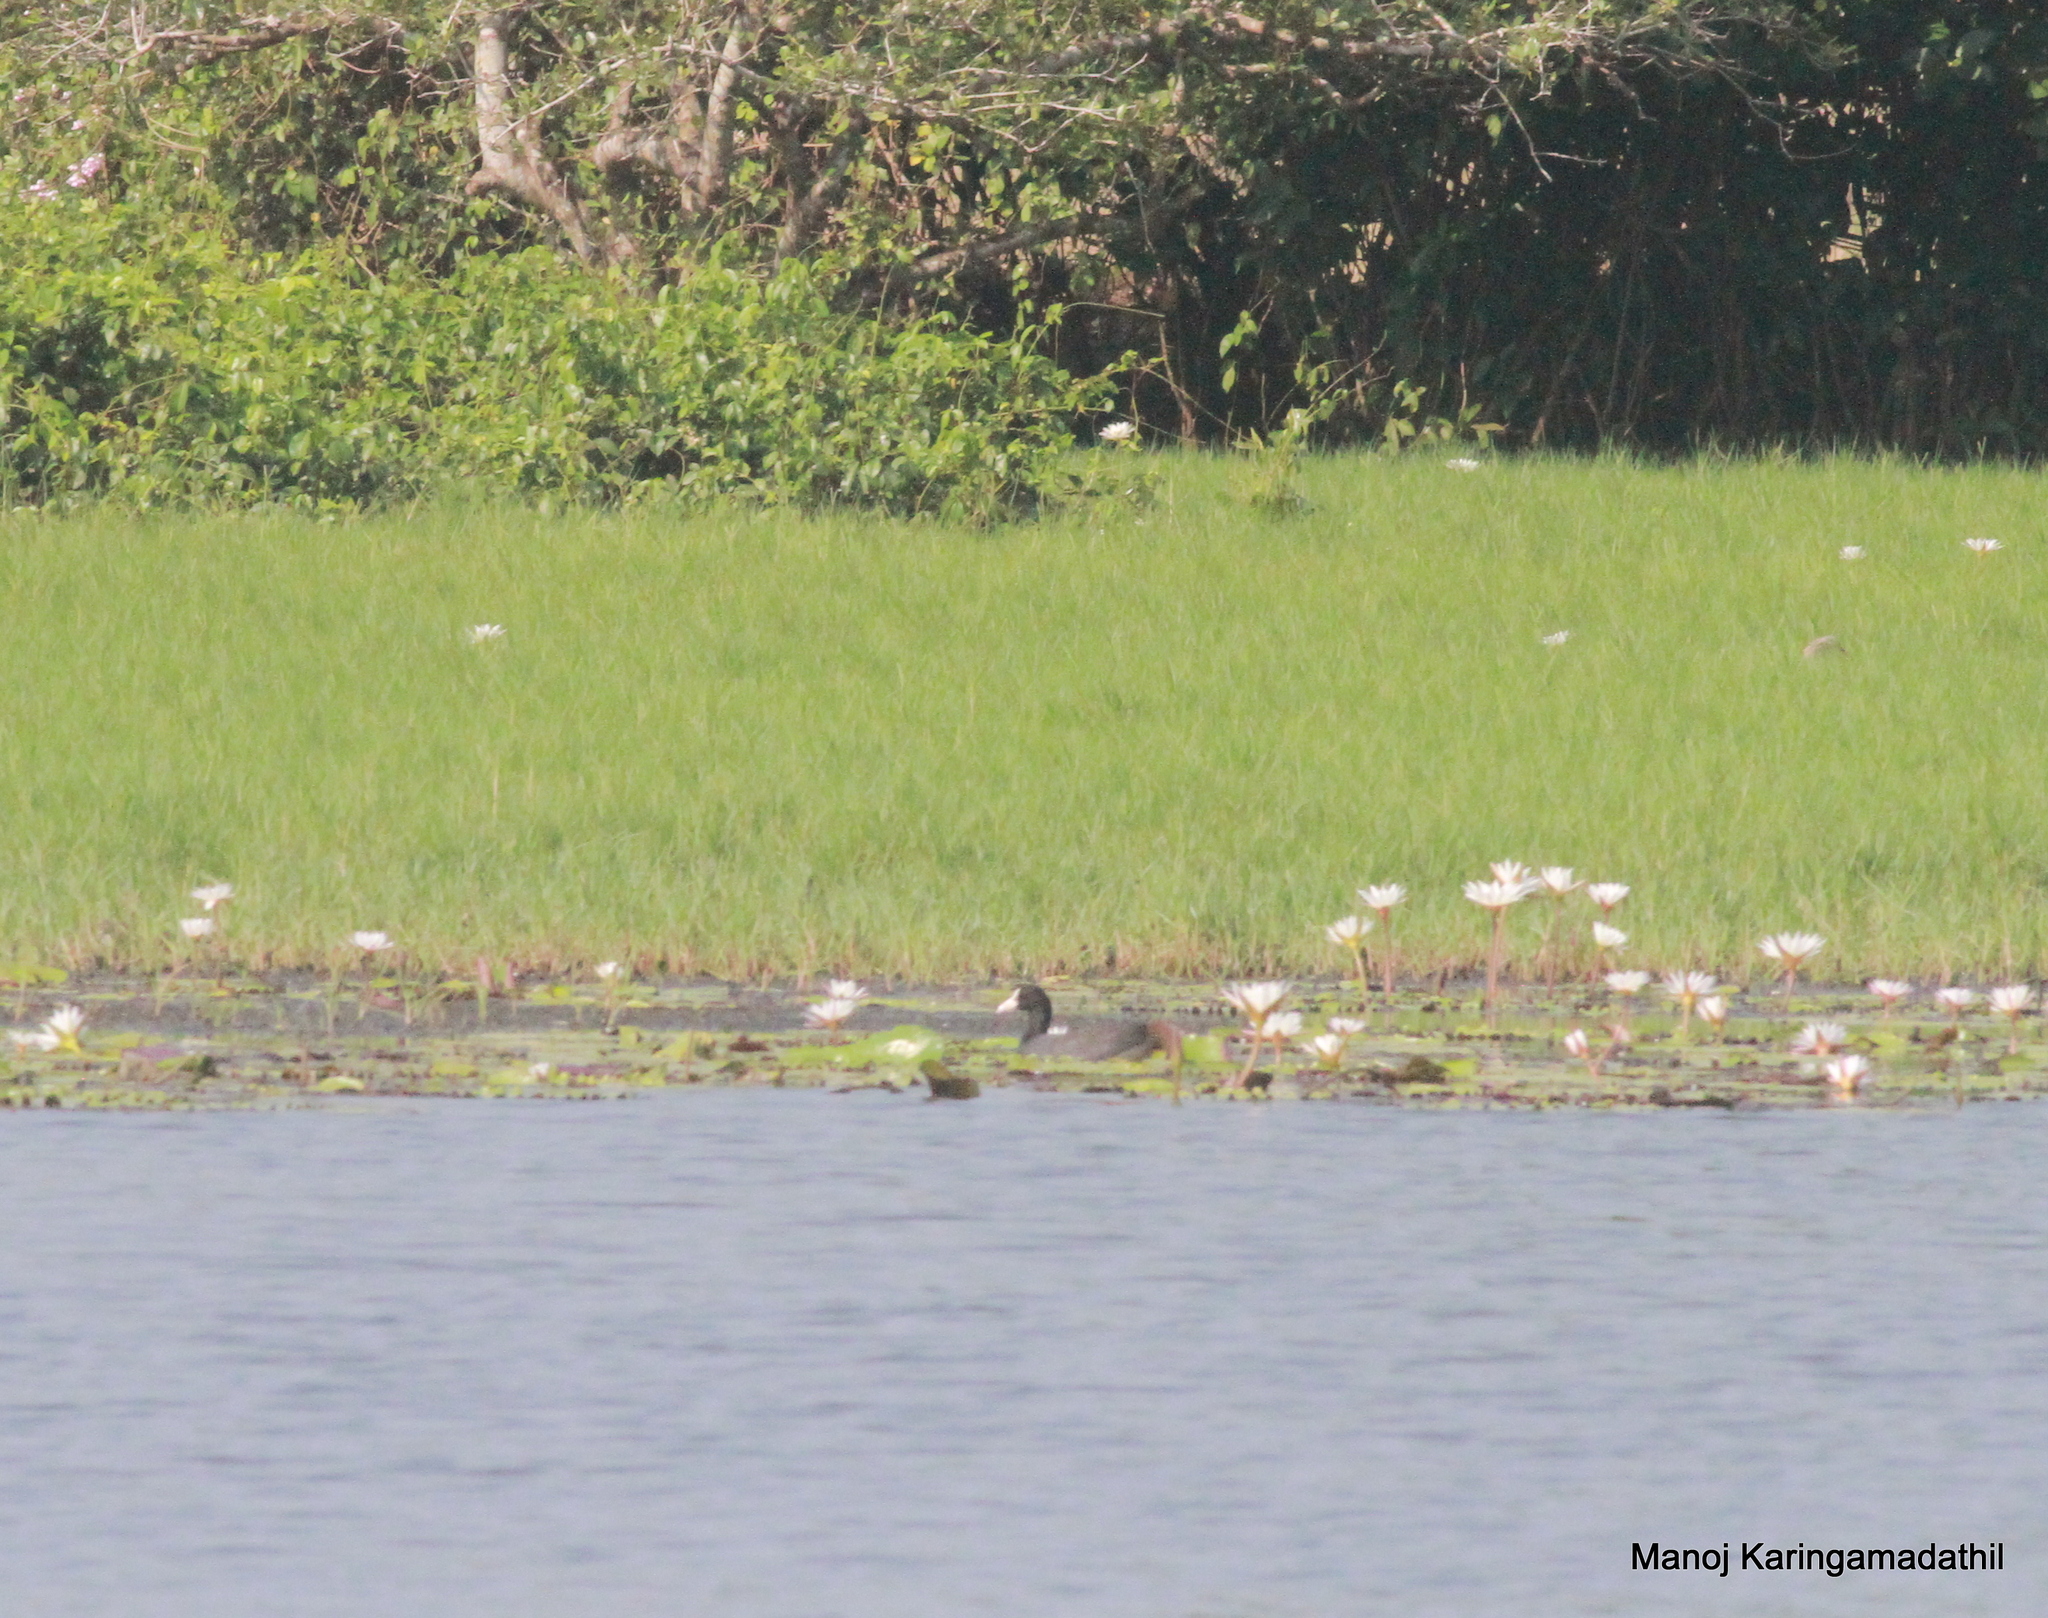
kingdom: Animalia
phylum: Chordata
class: Aves
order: Gruiformes
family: Rallidae
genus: Fulica
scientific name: Fulica atra
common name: Eurasian coot
